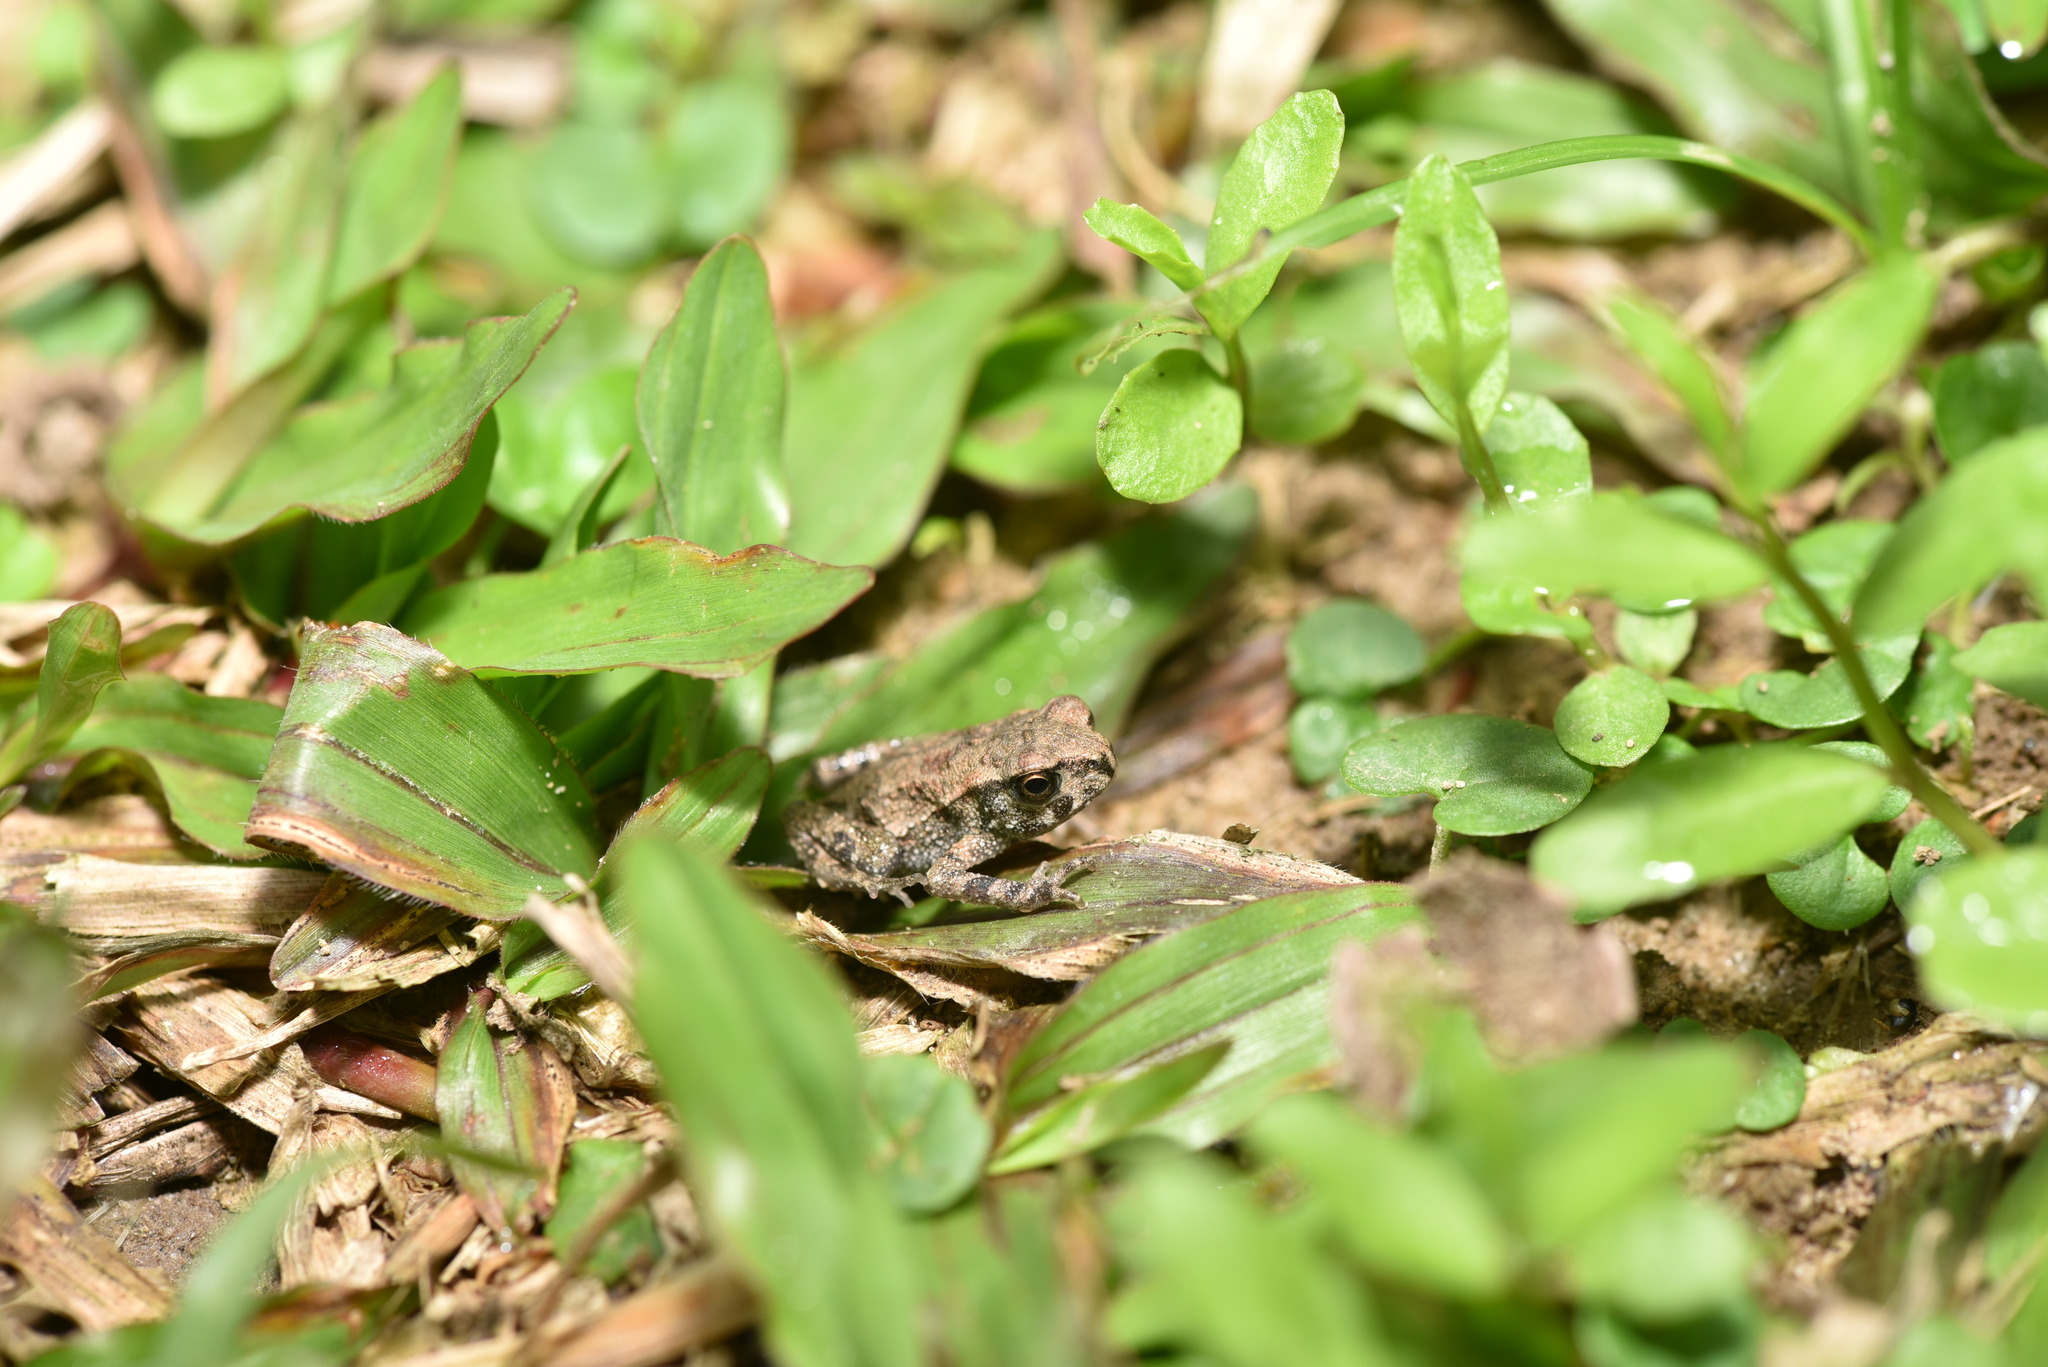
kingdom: Animalia
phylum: Chordata
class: Amphibia
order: Anura
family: Bufonidae
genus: Bufo
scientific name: Bufo bankorensis
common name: Bankor toad
